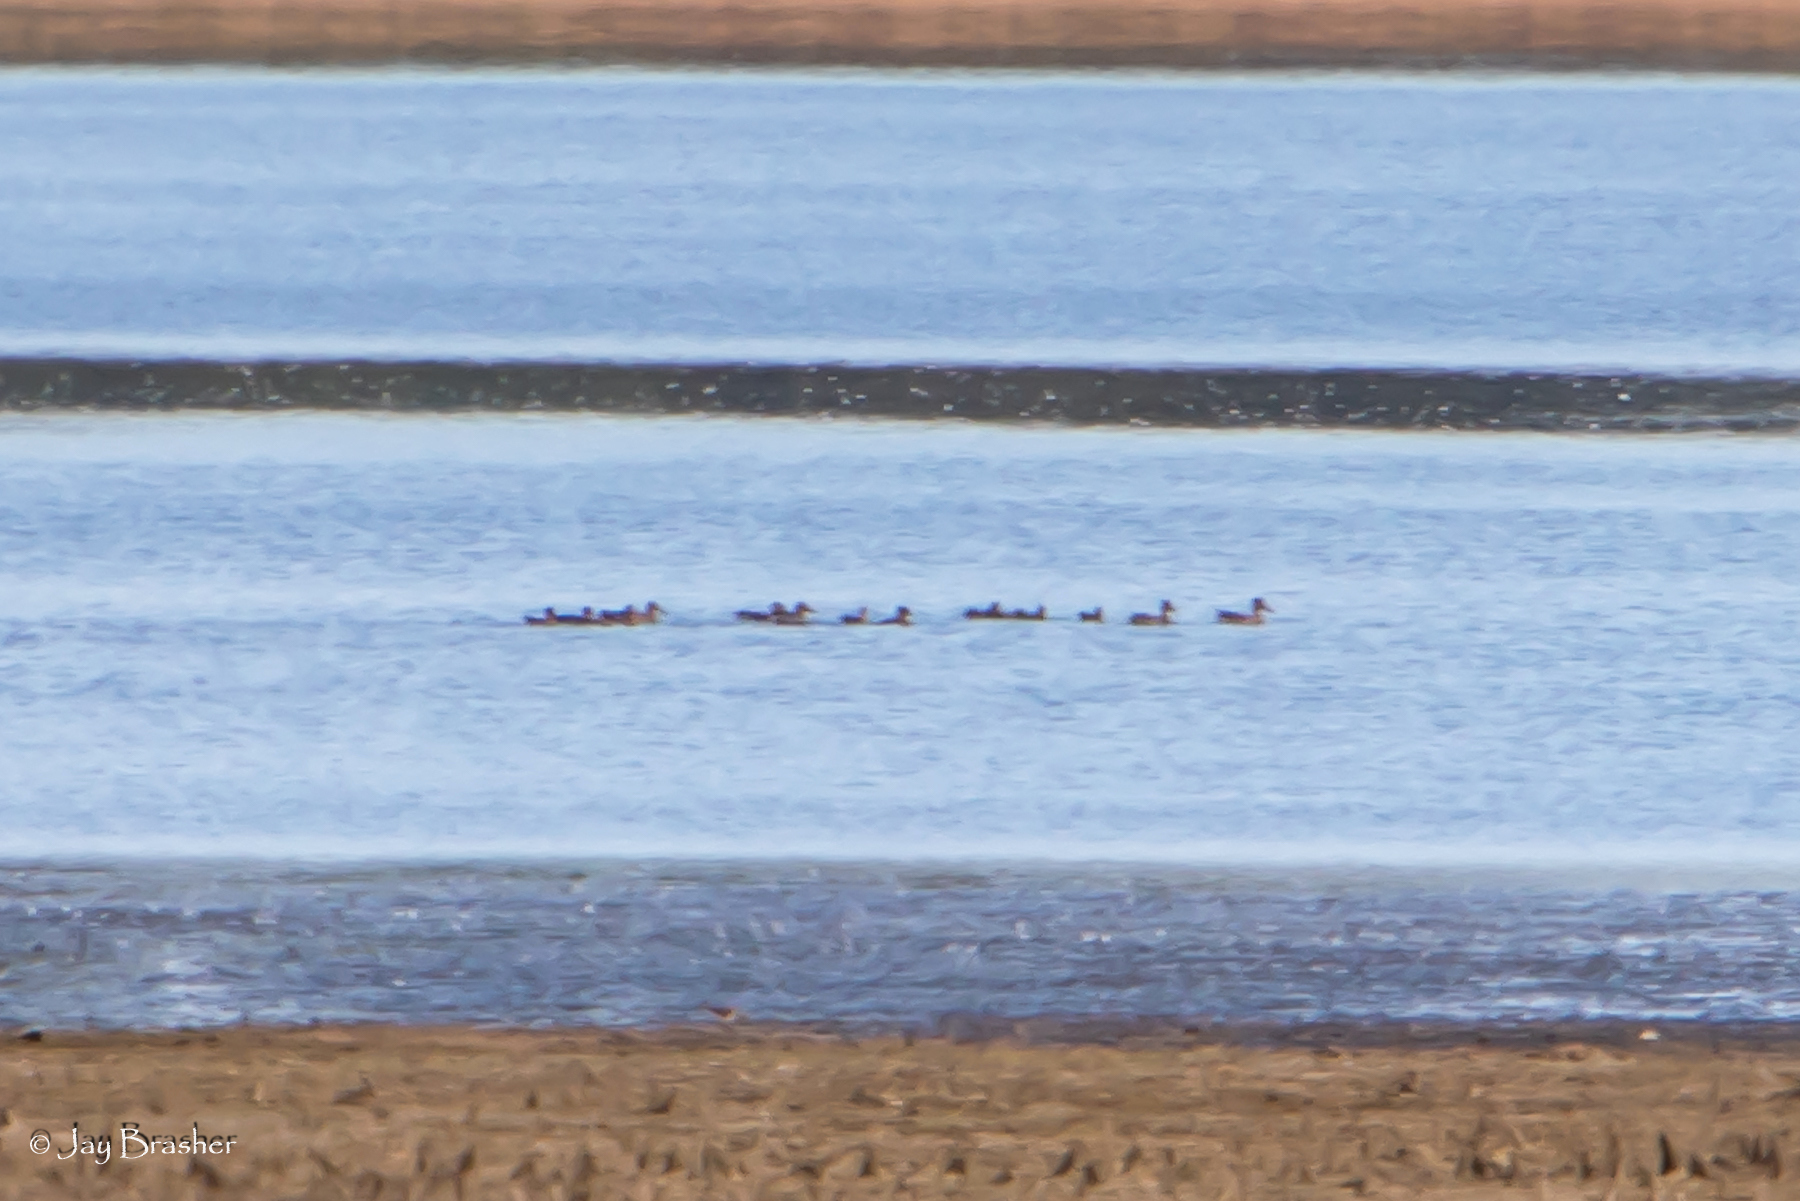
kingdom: Animalia
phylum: Chordata
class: Aves
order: Anseriformes
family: Anatidae
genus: Spatula
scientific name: Spatula clypeata
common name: Northern shoveler
